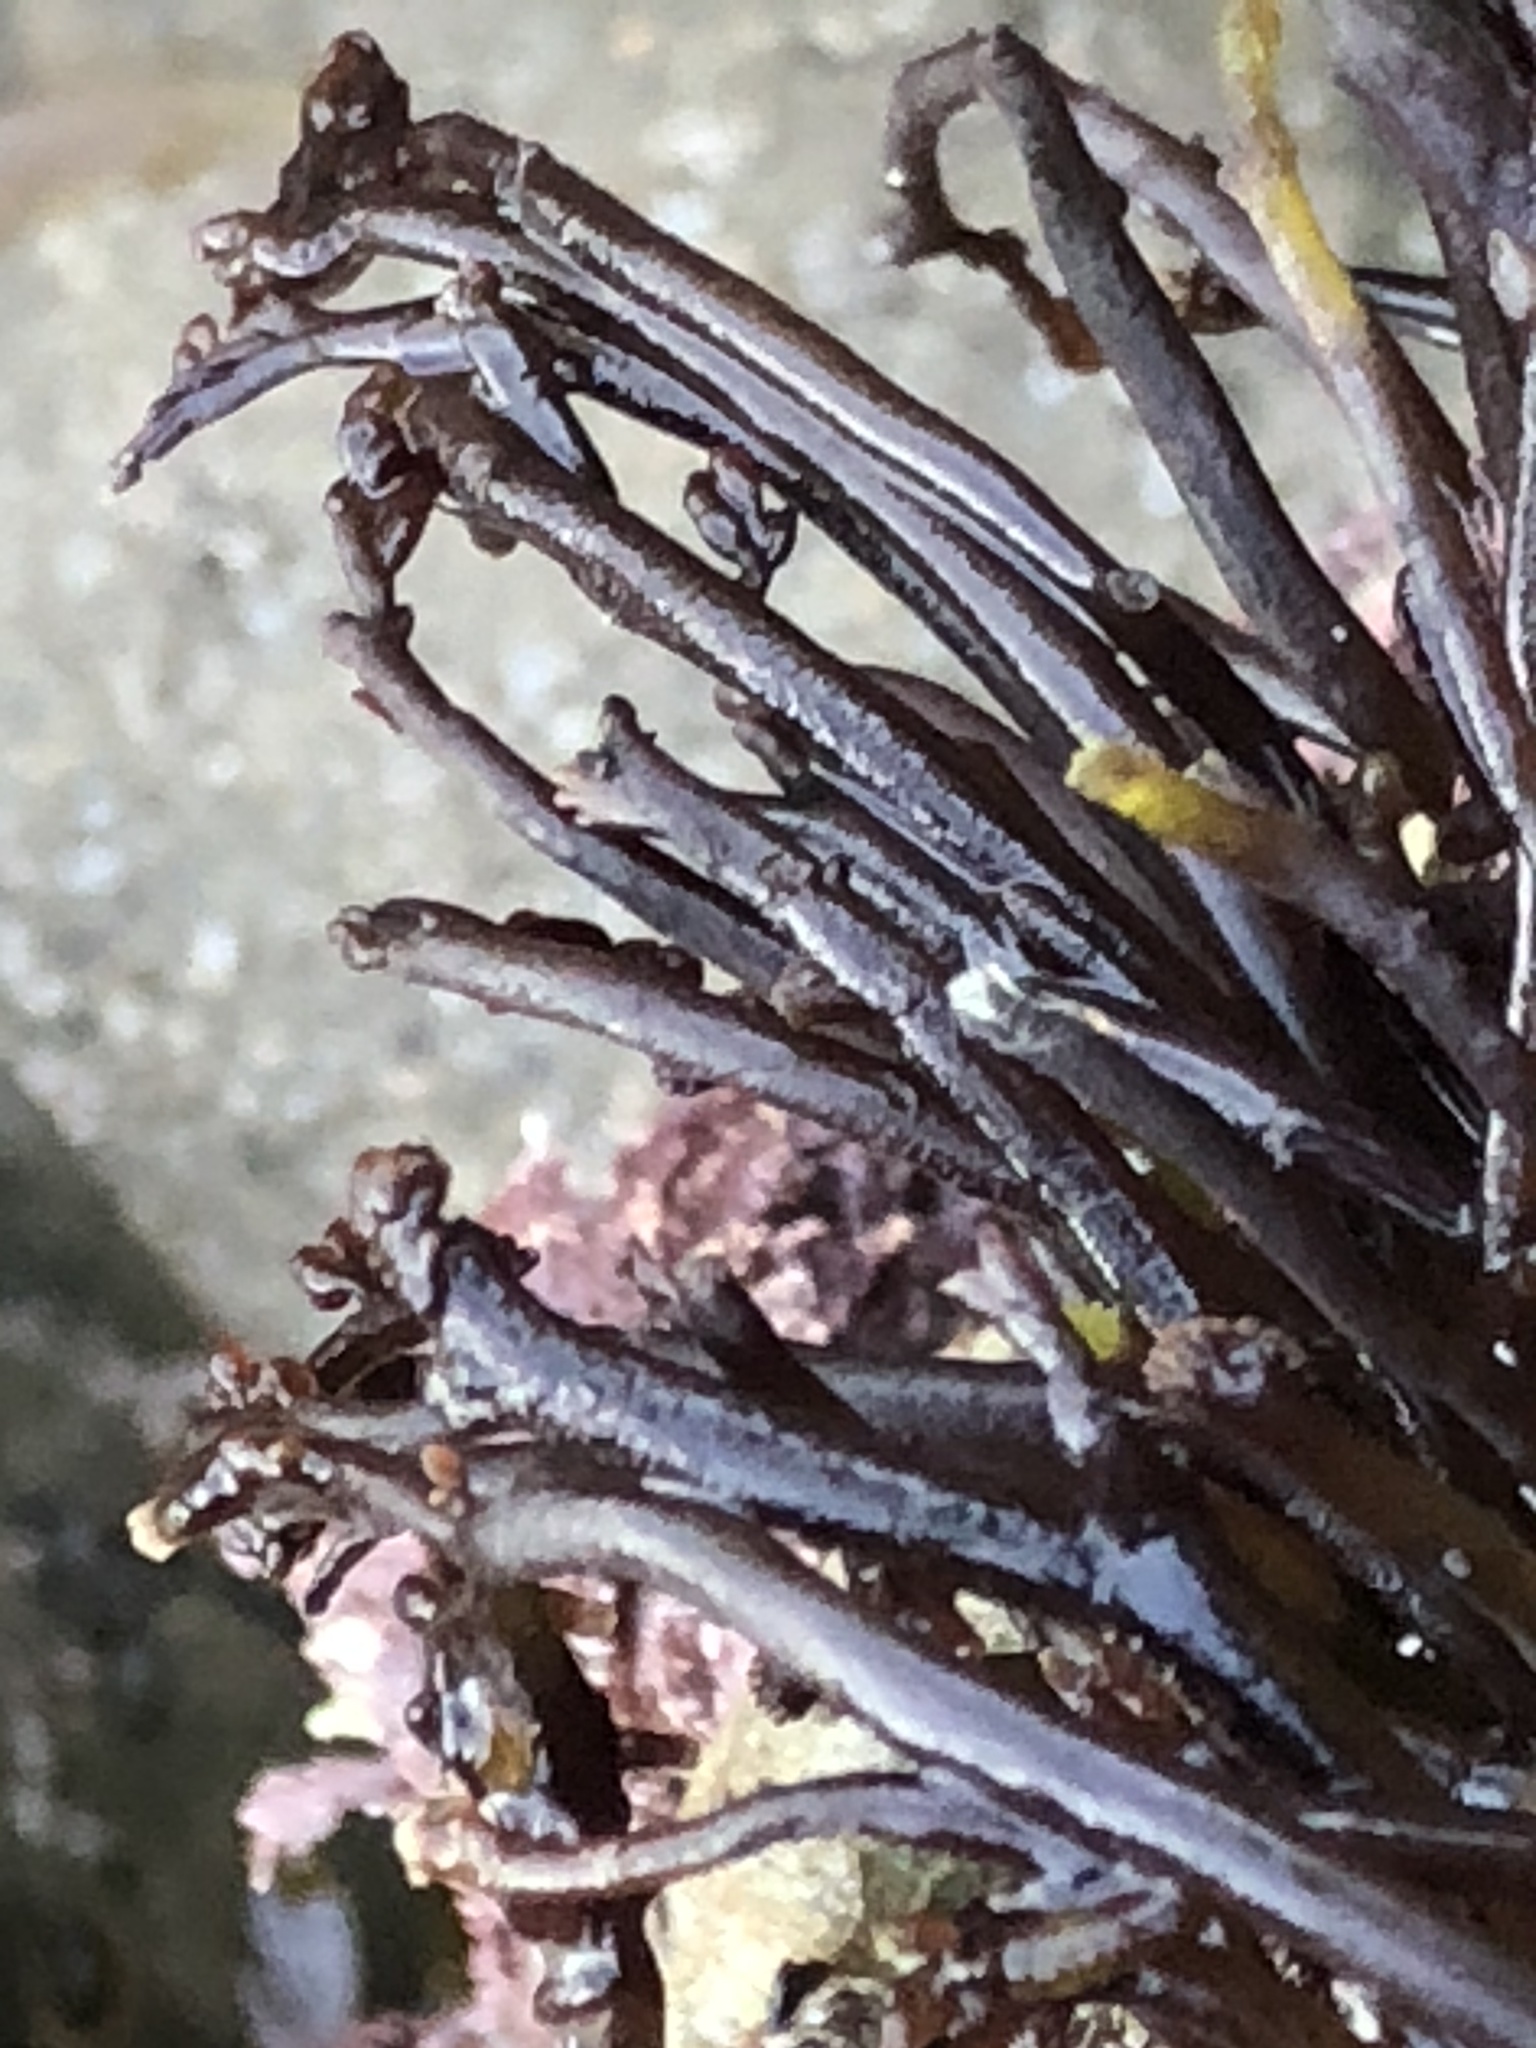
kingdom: Plantae
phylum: Rhodophyta
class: Florideophyceae
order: Rhodymeniales
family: Champiaceae
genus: Neogastroclonium
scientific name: Neogastroclonium subarticulatum
